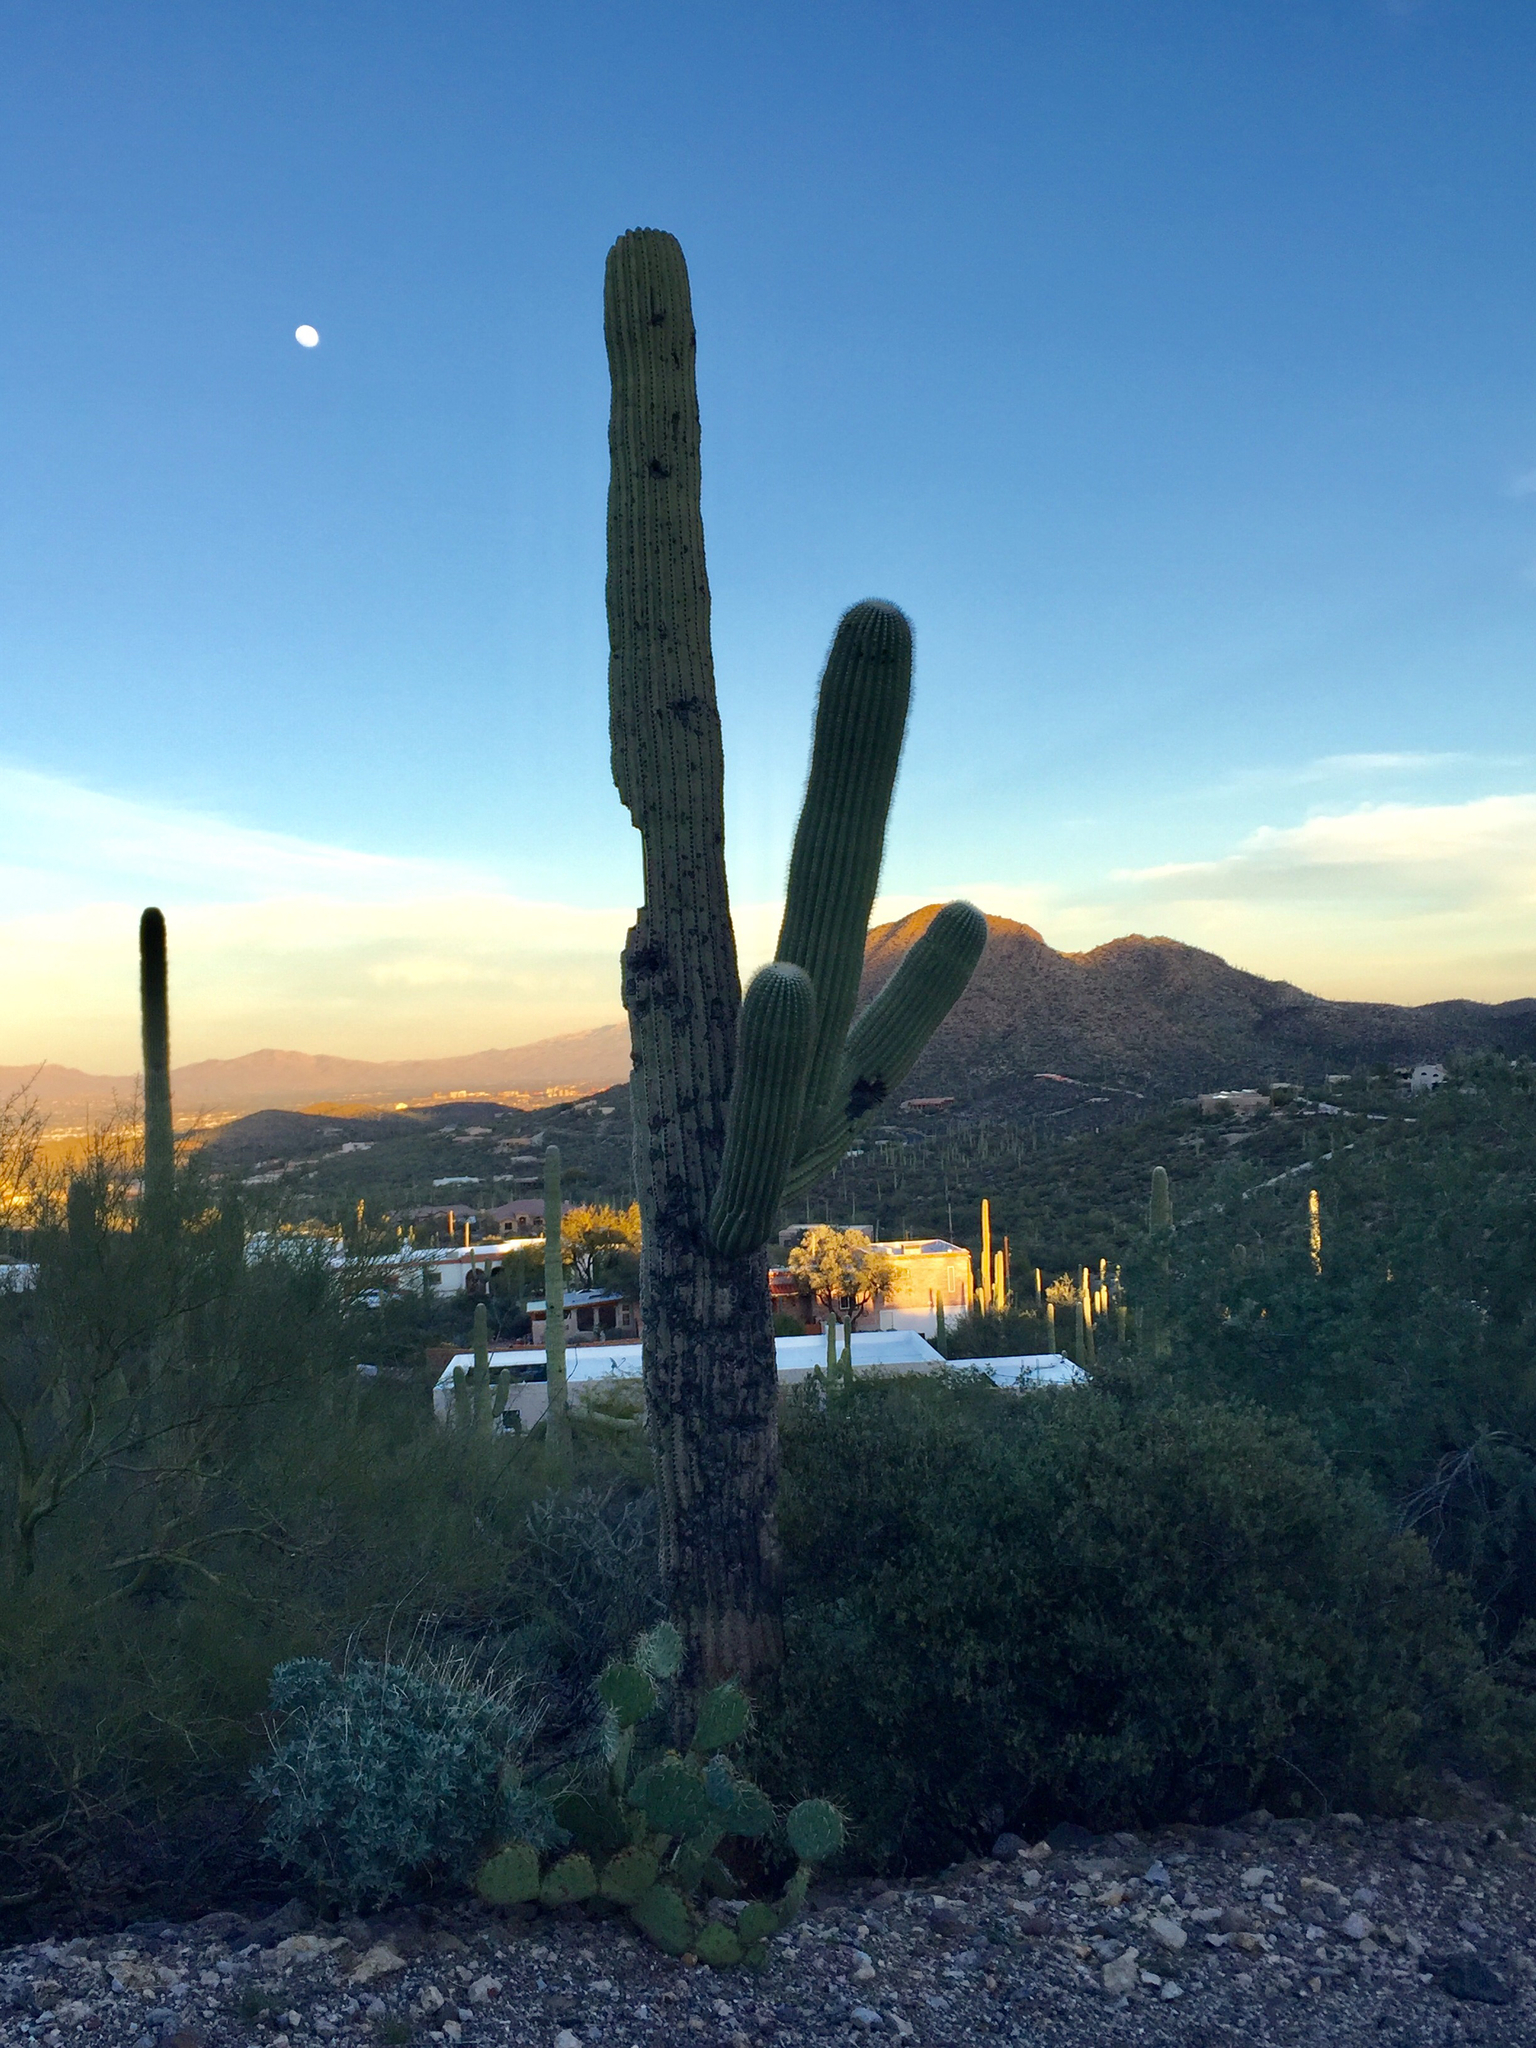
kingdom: Plantae
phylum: Tracheophyta
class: Magnoliopsida
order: Caryophyllales
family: Cactaceae
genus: Carnegiea
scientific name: Carnegiea gigantea
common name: Saguaro
